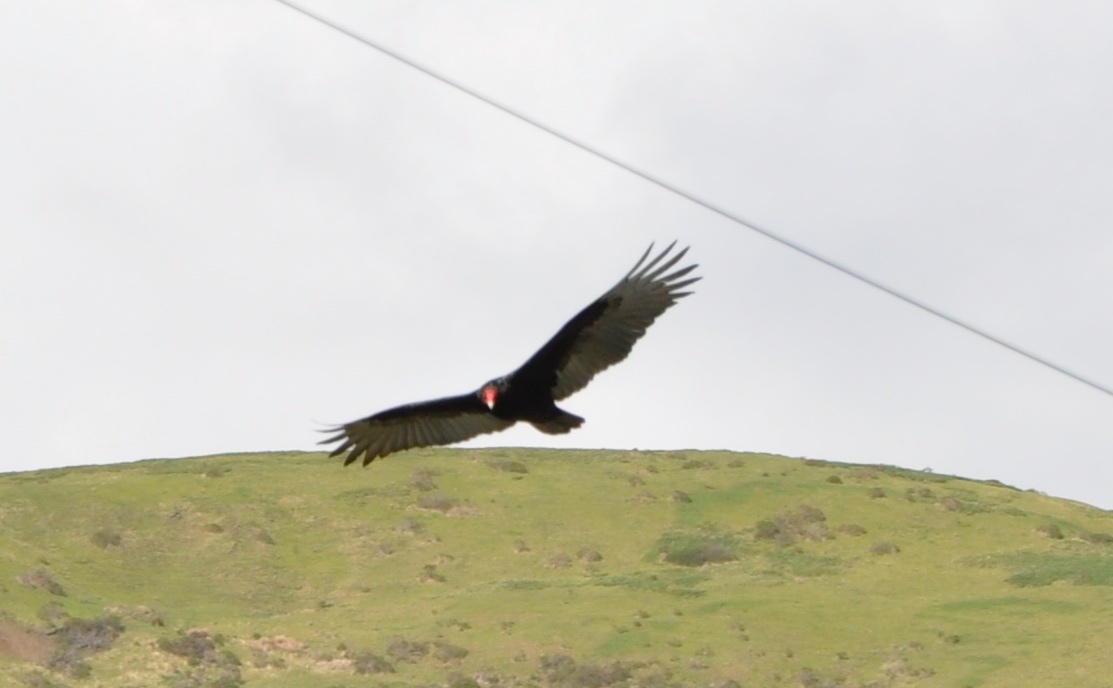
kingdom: Animalia
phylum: Chordata
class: Aves
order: Accipitriformes
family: Cathartidae
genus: Cathartes
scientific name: Cathartes aura
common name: Turkey vulture
